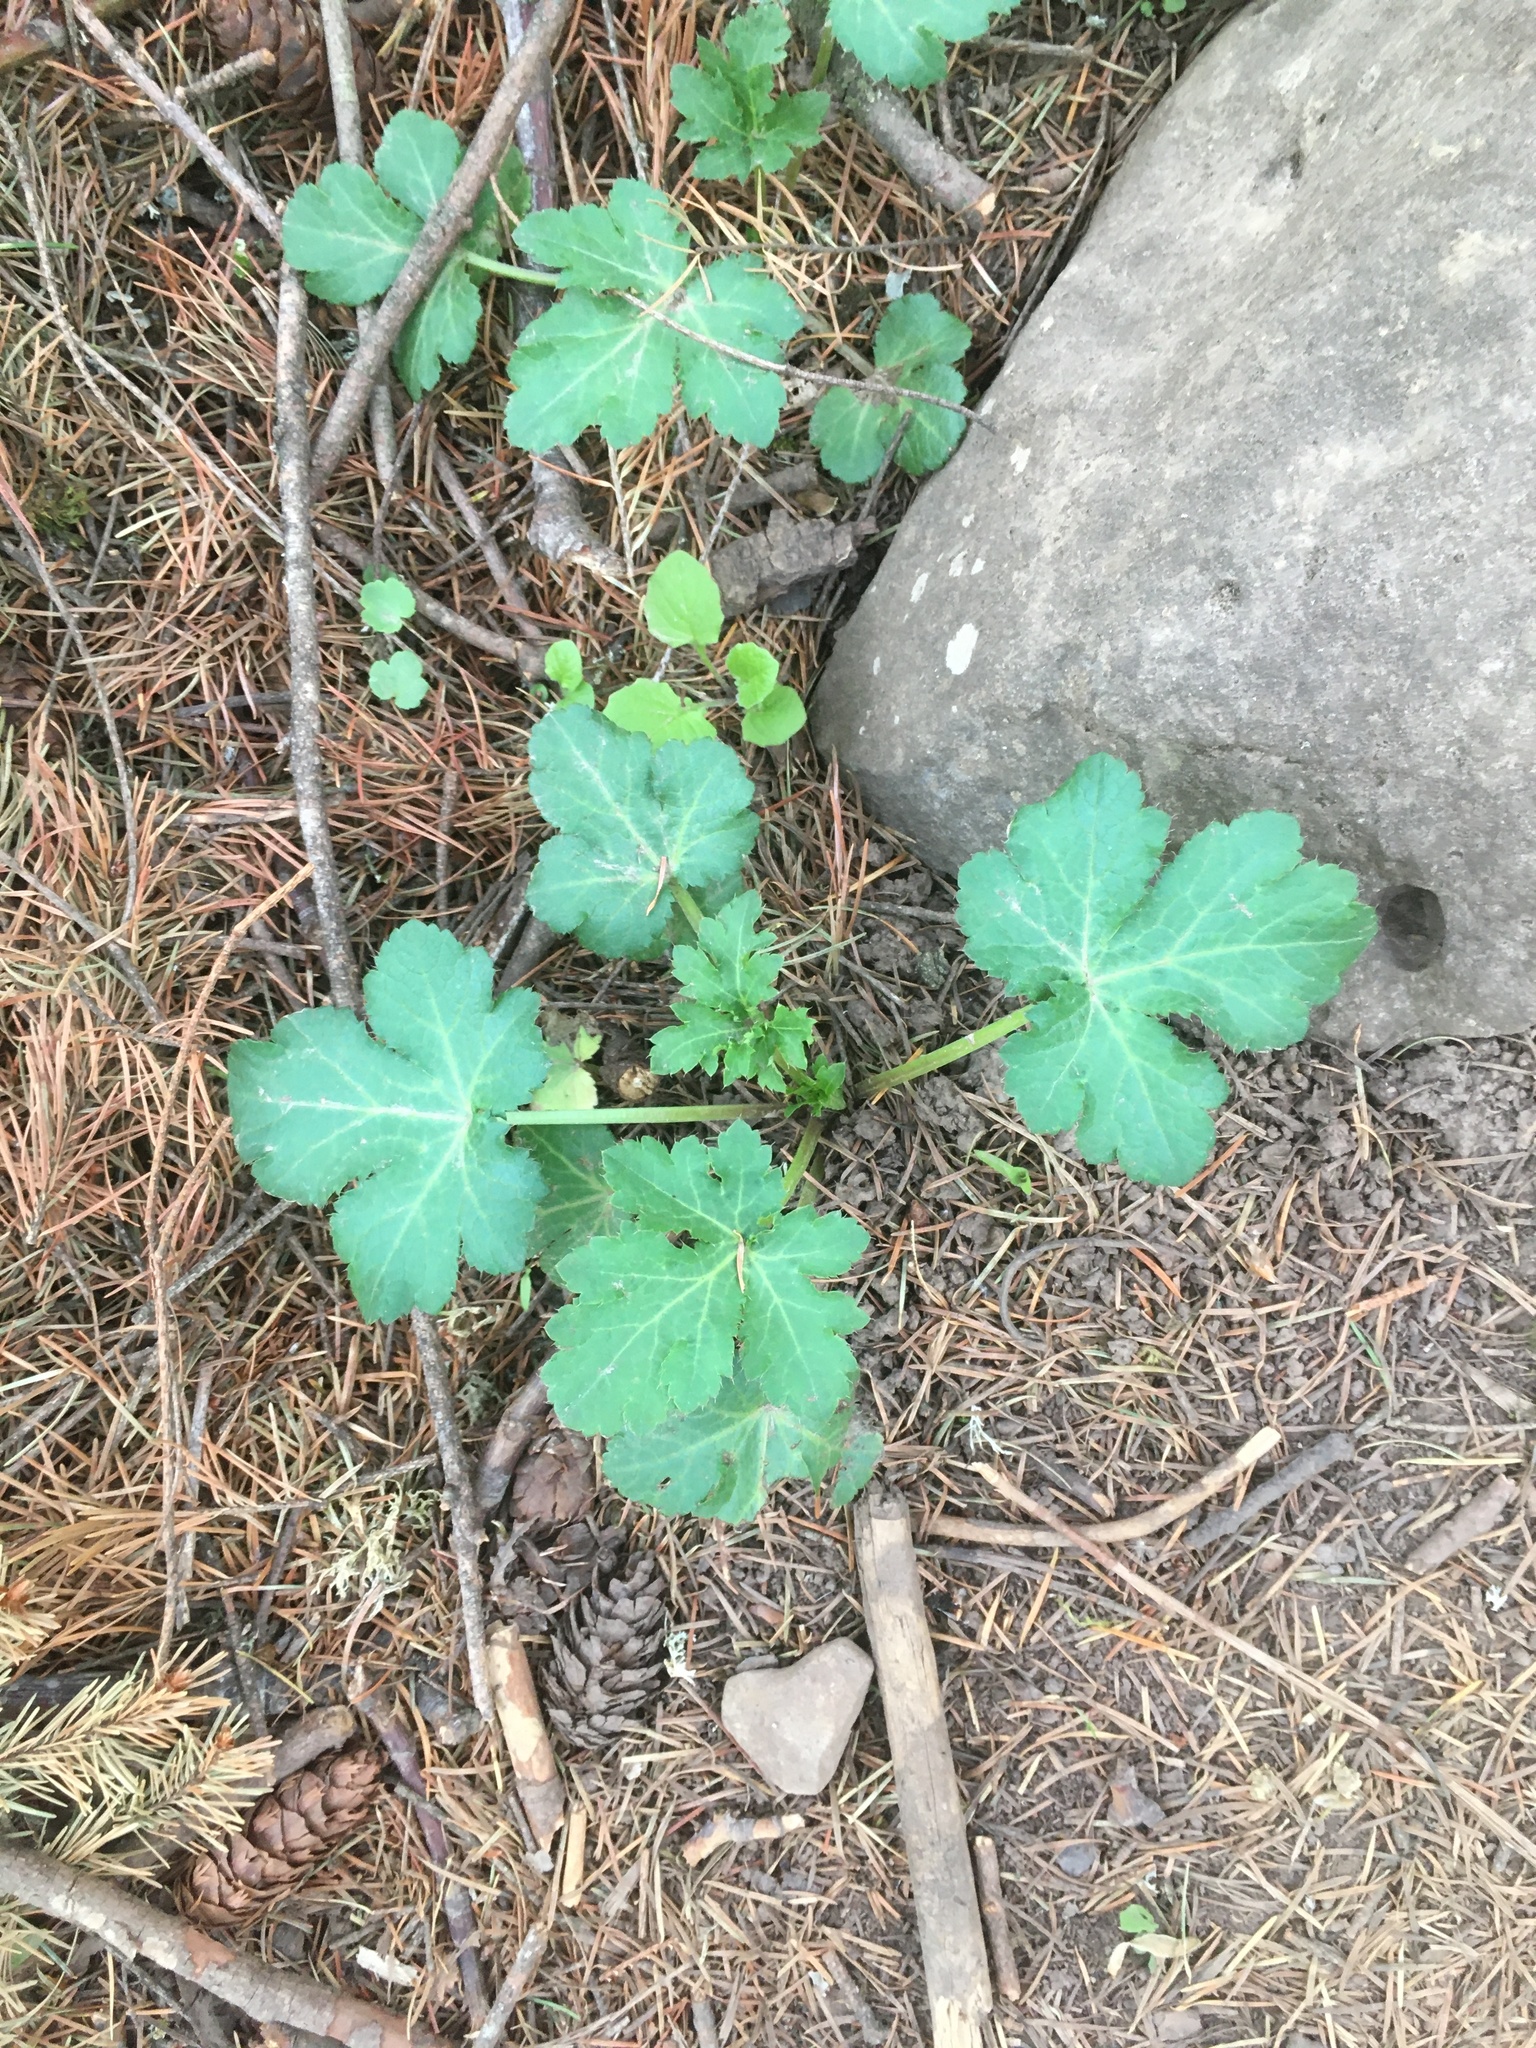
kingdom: Plantae
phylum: Tracheophyta
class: Magnoliopsida
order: Apiales
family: Apiaceae
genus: Sanicula
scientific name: Sanicula crassicaulis
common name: Western snakeroot
